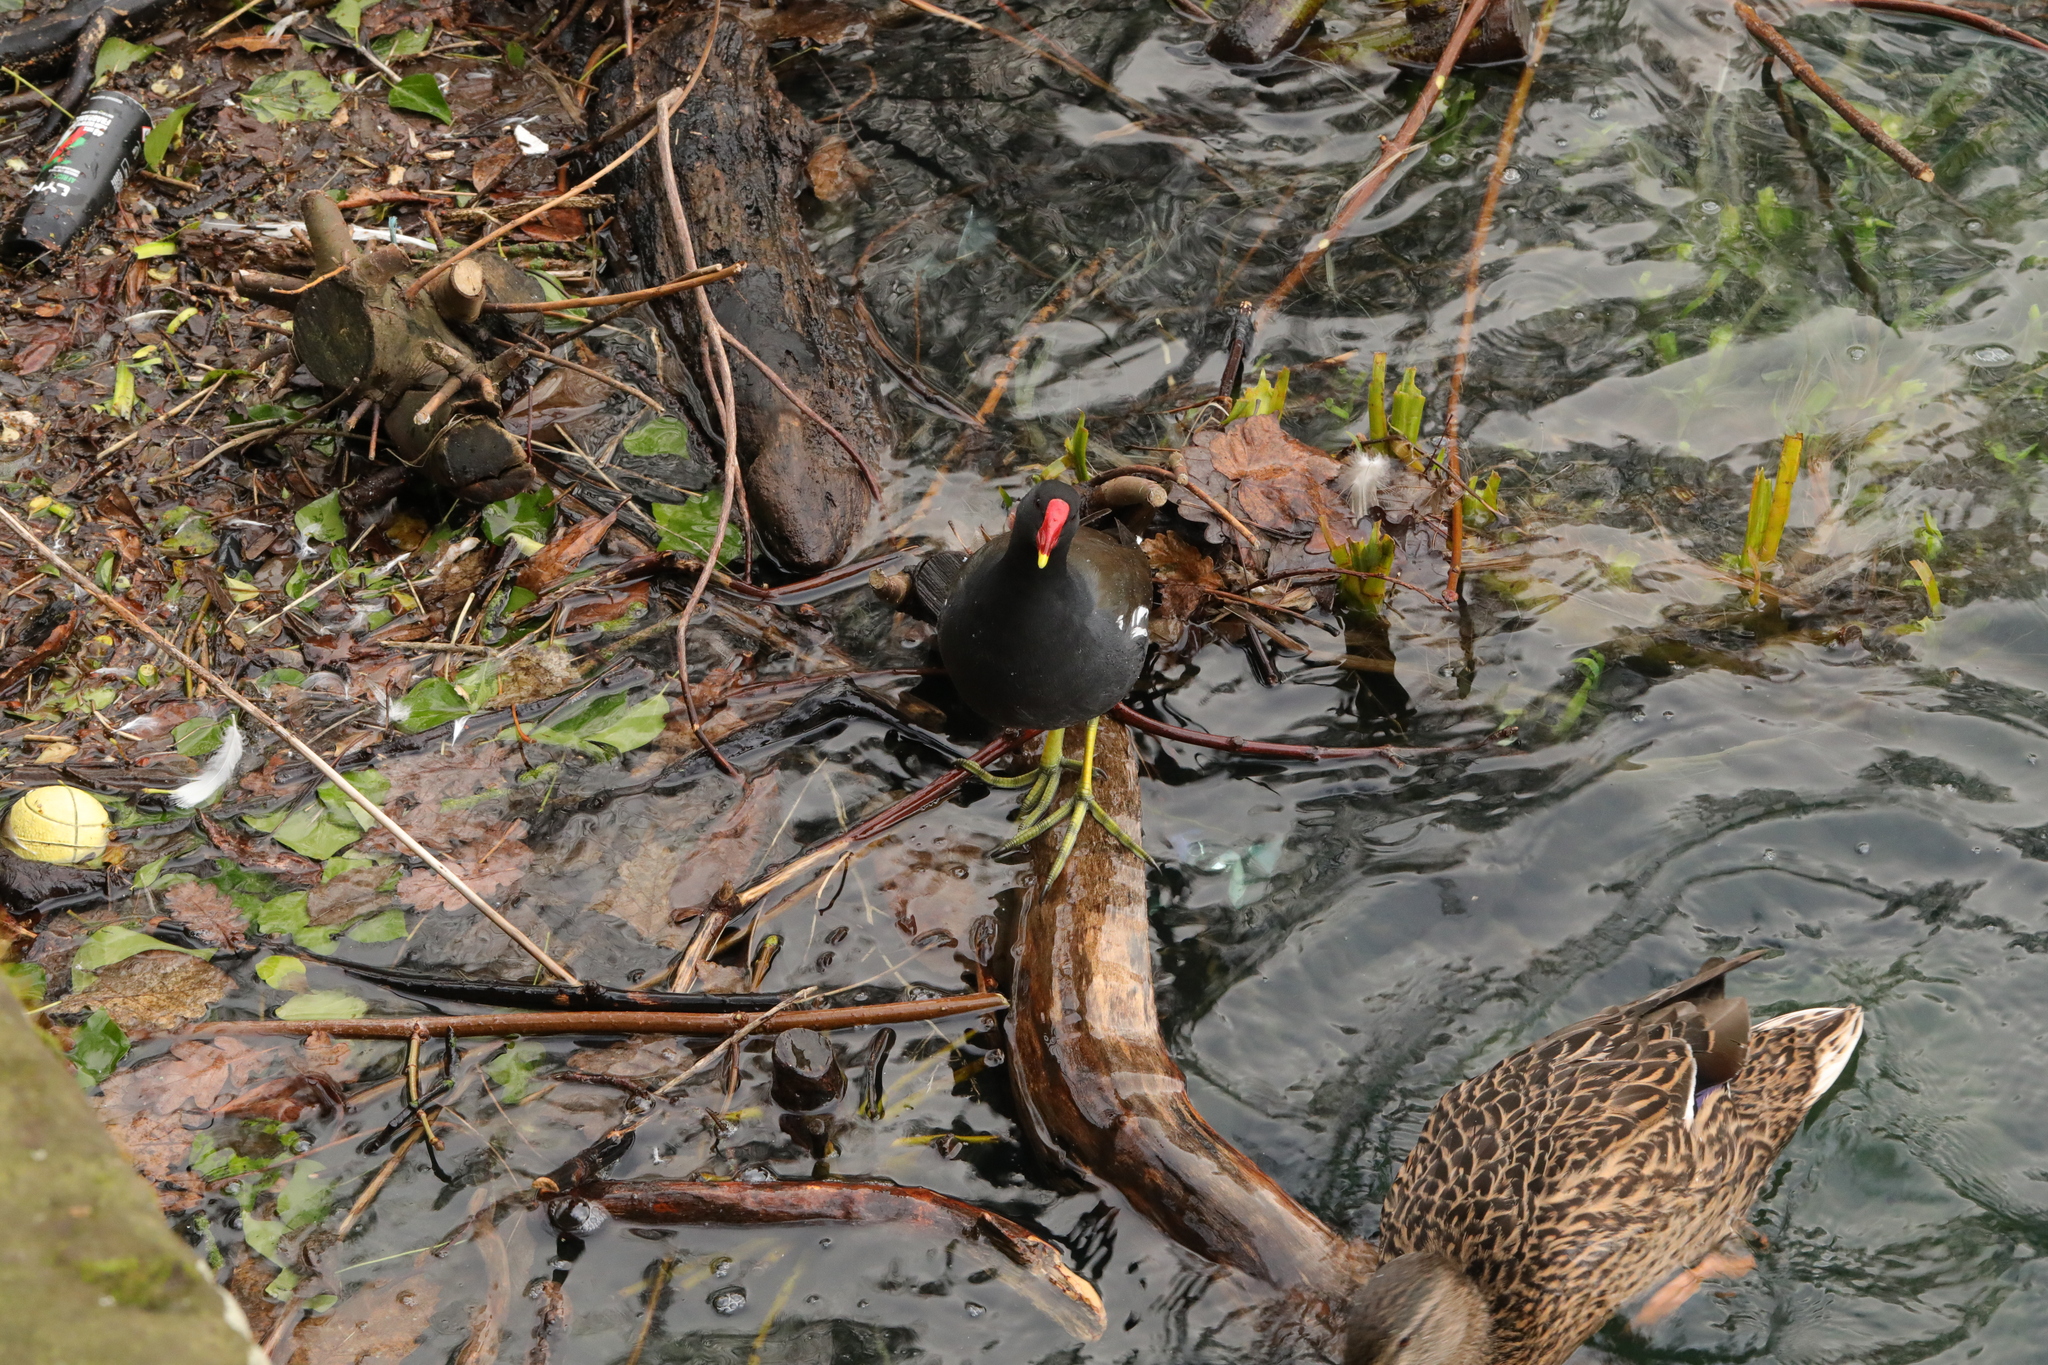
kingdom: Animalia
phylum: Chordata
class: Aves
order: Gruiformes
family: Rallidae
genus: Gallinula
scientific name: Gallinula chloropus
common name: Common moorhen
